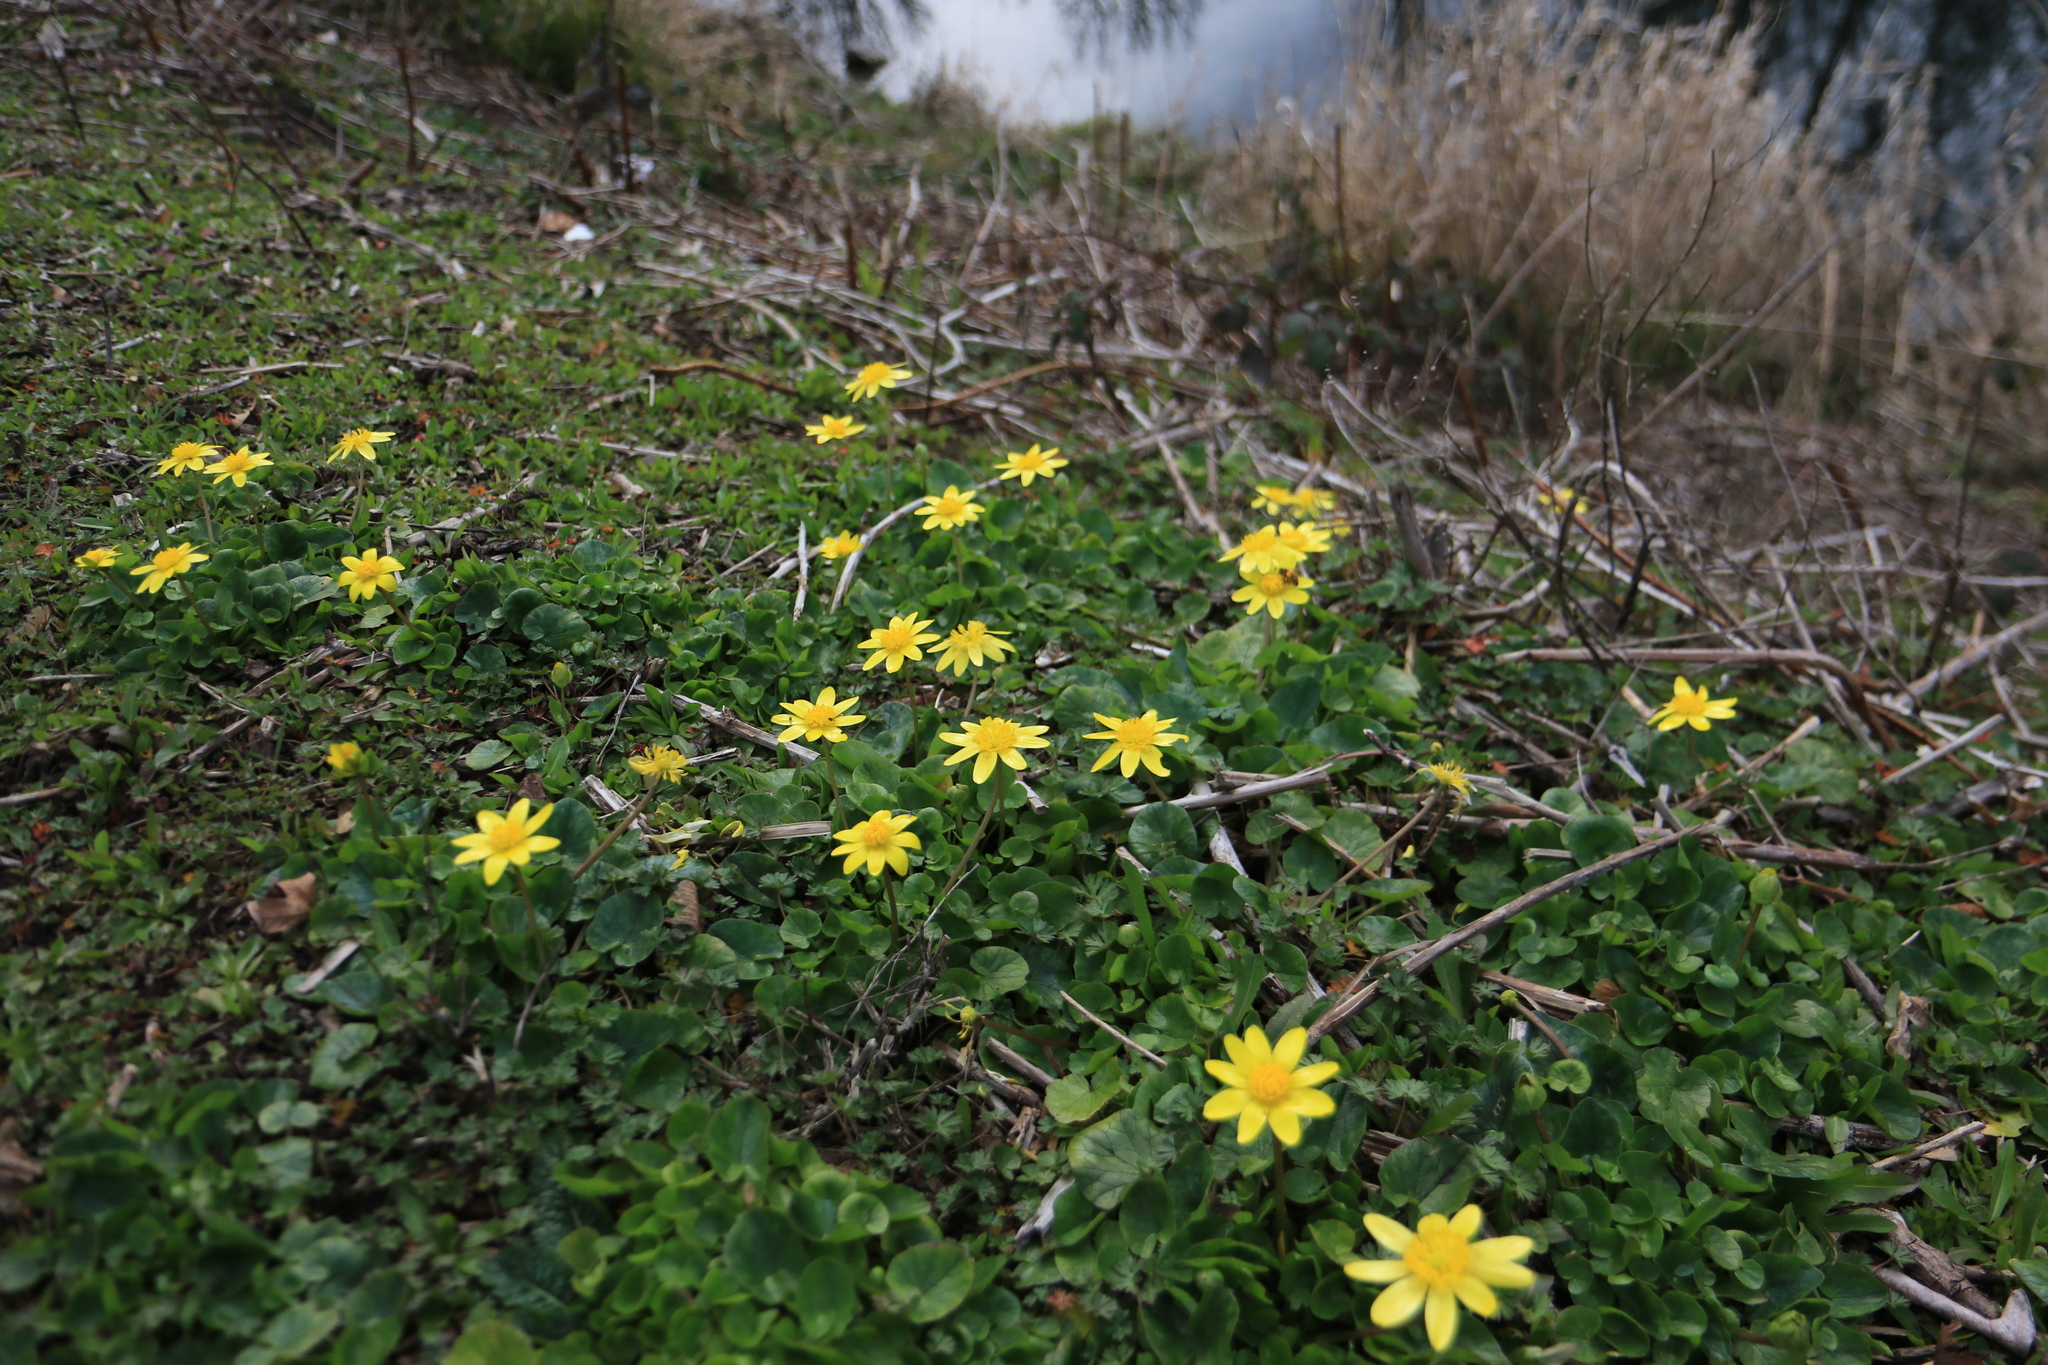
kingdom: Plantae
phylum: Tracheophyta
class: Magnoliopsida
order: Ranunculales
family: Ranunculaceae
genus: Ficaria
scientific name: Ficaria verna
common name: Lesser celandine
